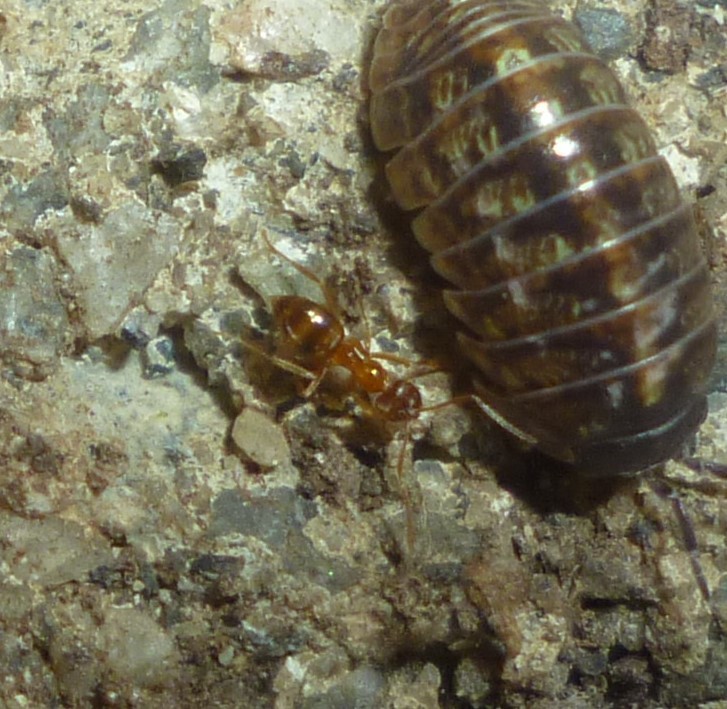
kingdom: Animalia
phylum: Arthropoda
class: Insecta
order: Hymenoptera
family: Formicidae
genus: Paratrechina
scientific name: Paratrechina flavipes
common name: Eastern asian formicine ant
